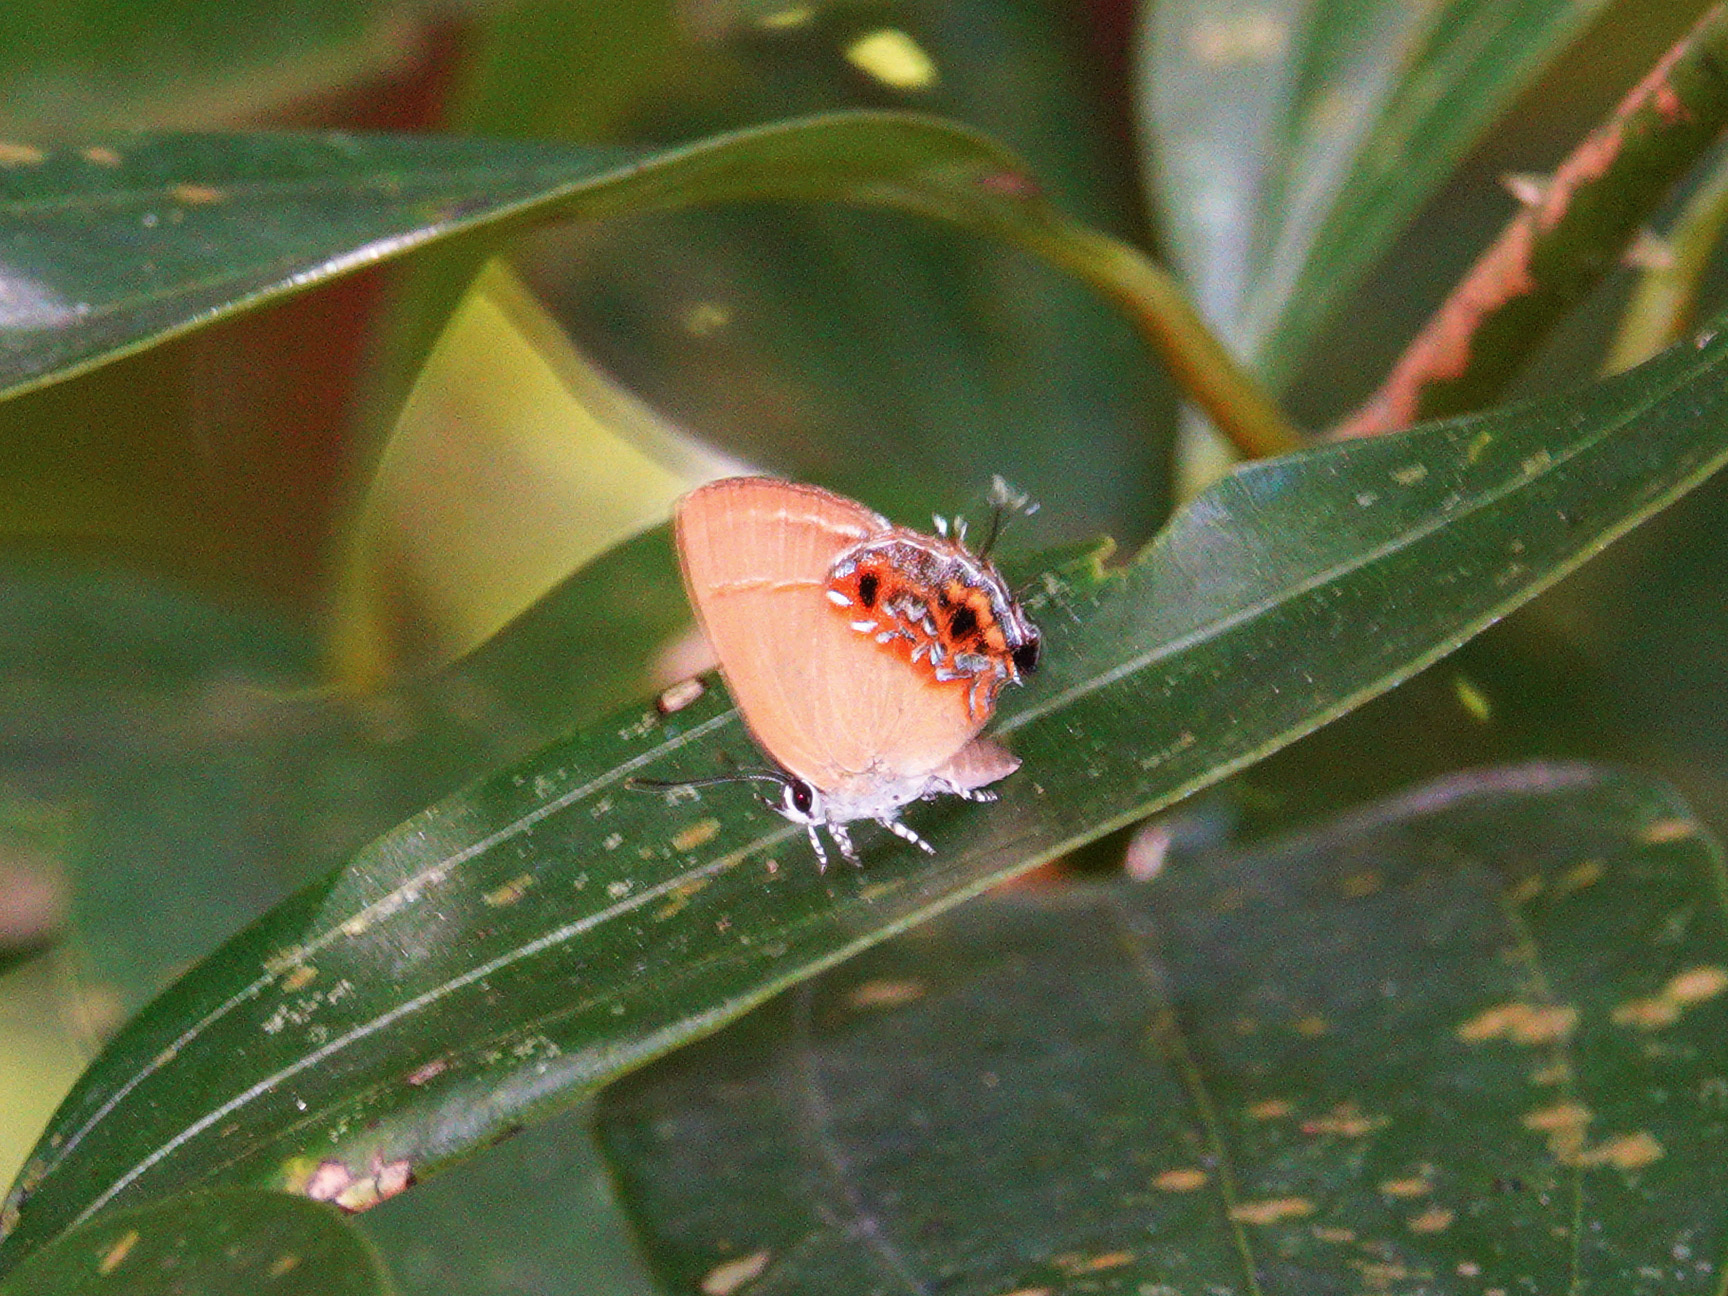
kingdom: Animalia
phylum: Arthropoda
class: Insecta
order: Lepidoptera
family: Lycaenidae
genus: Semanga
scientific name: Semanga superba
